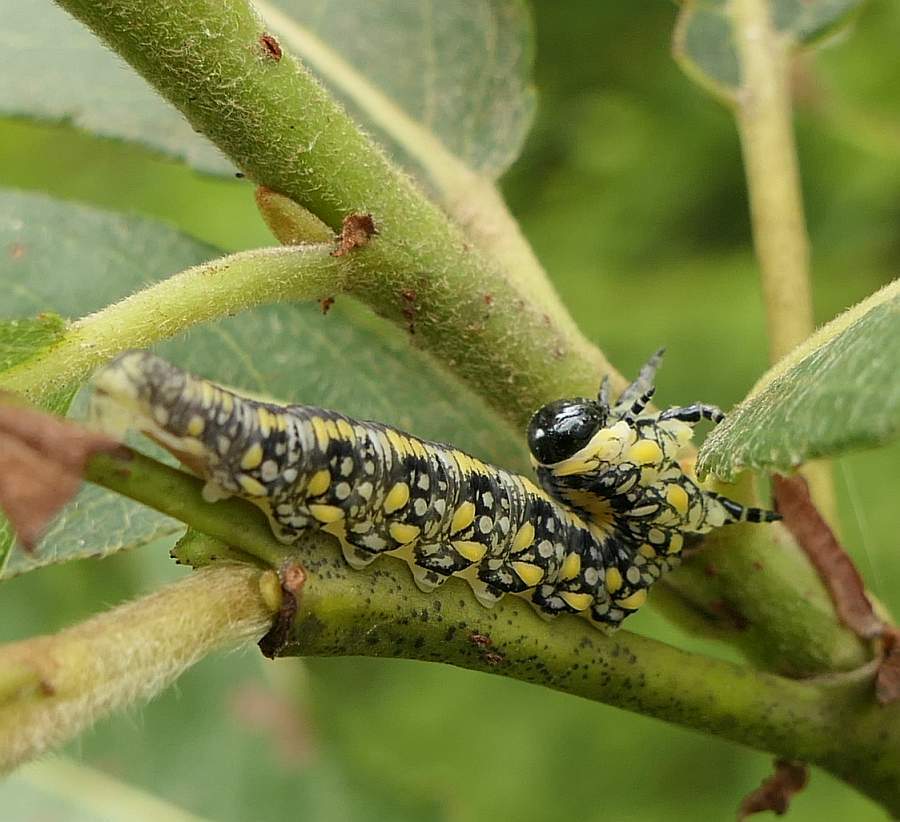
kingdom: Animalia
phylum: Arthropoda
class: Insecta
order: Hymenoptera
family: Diprionidae
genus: Diprion
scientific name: Diprion similis
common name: Pine sawfly
